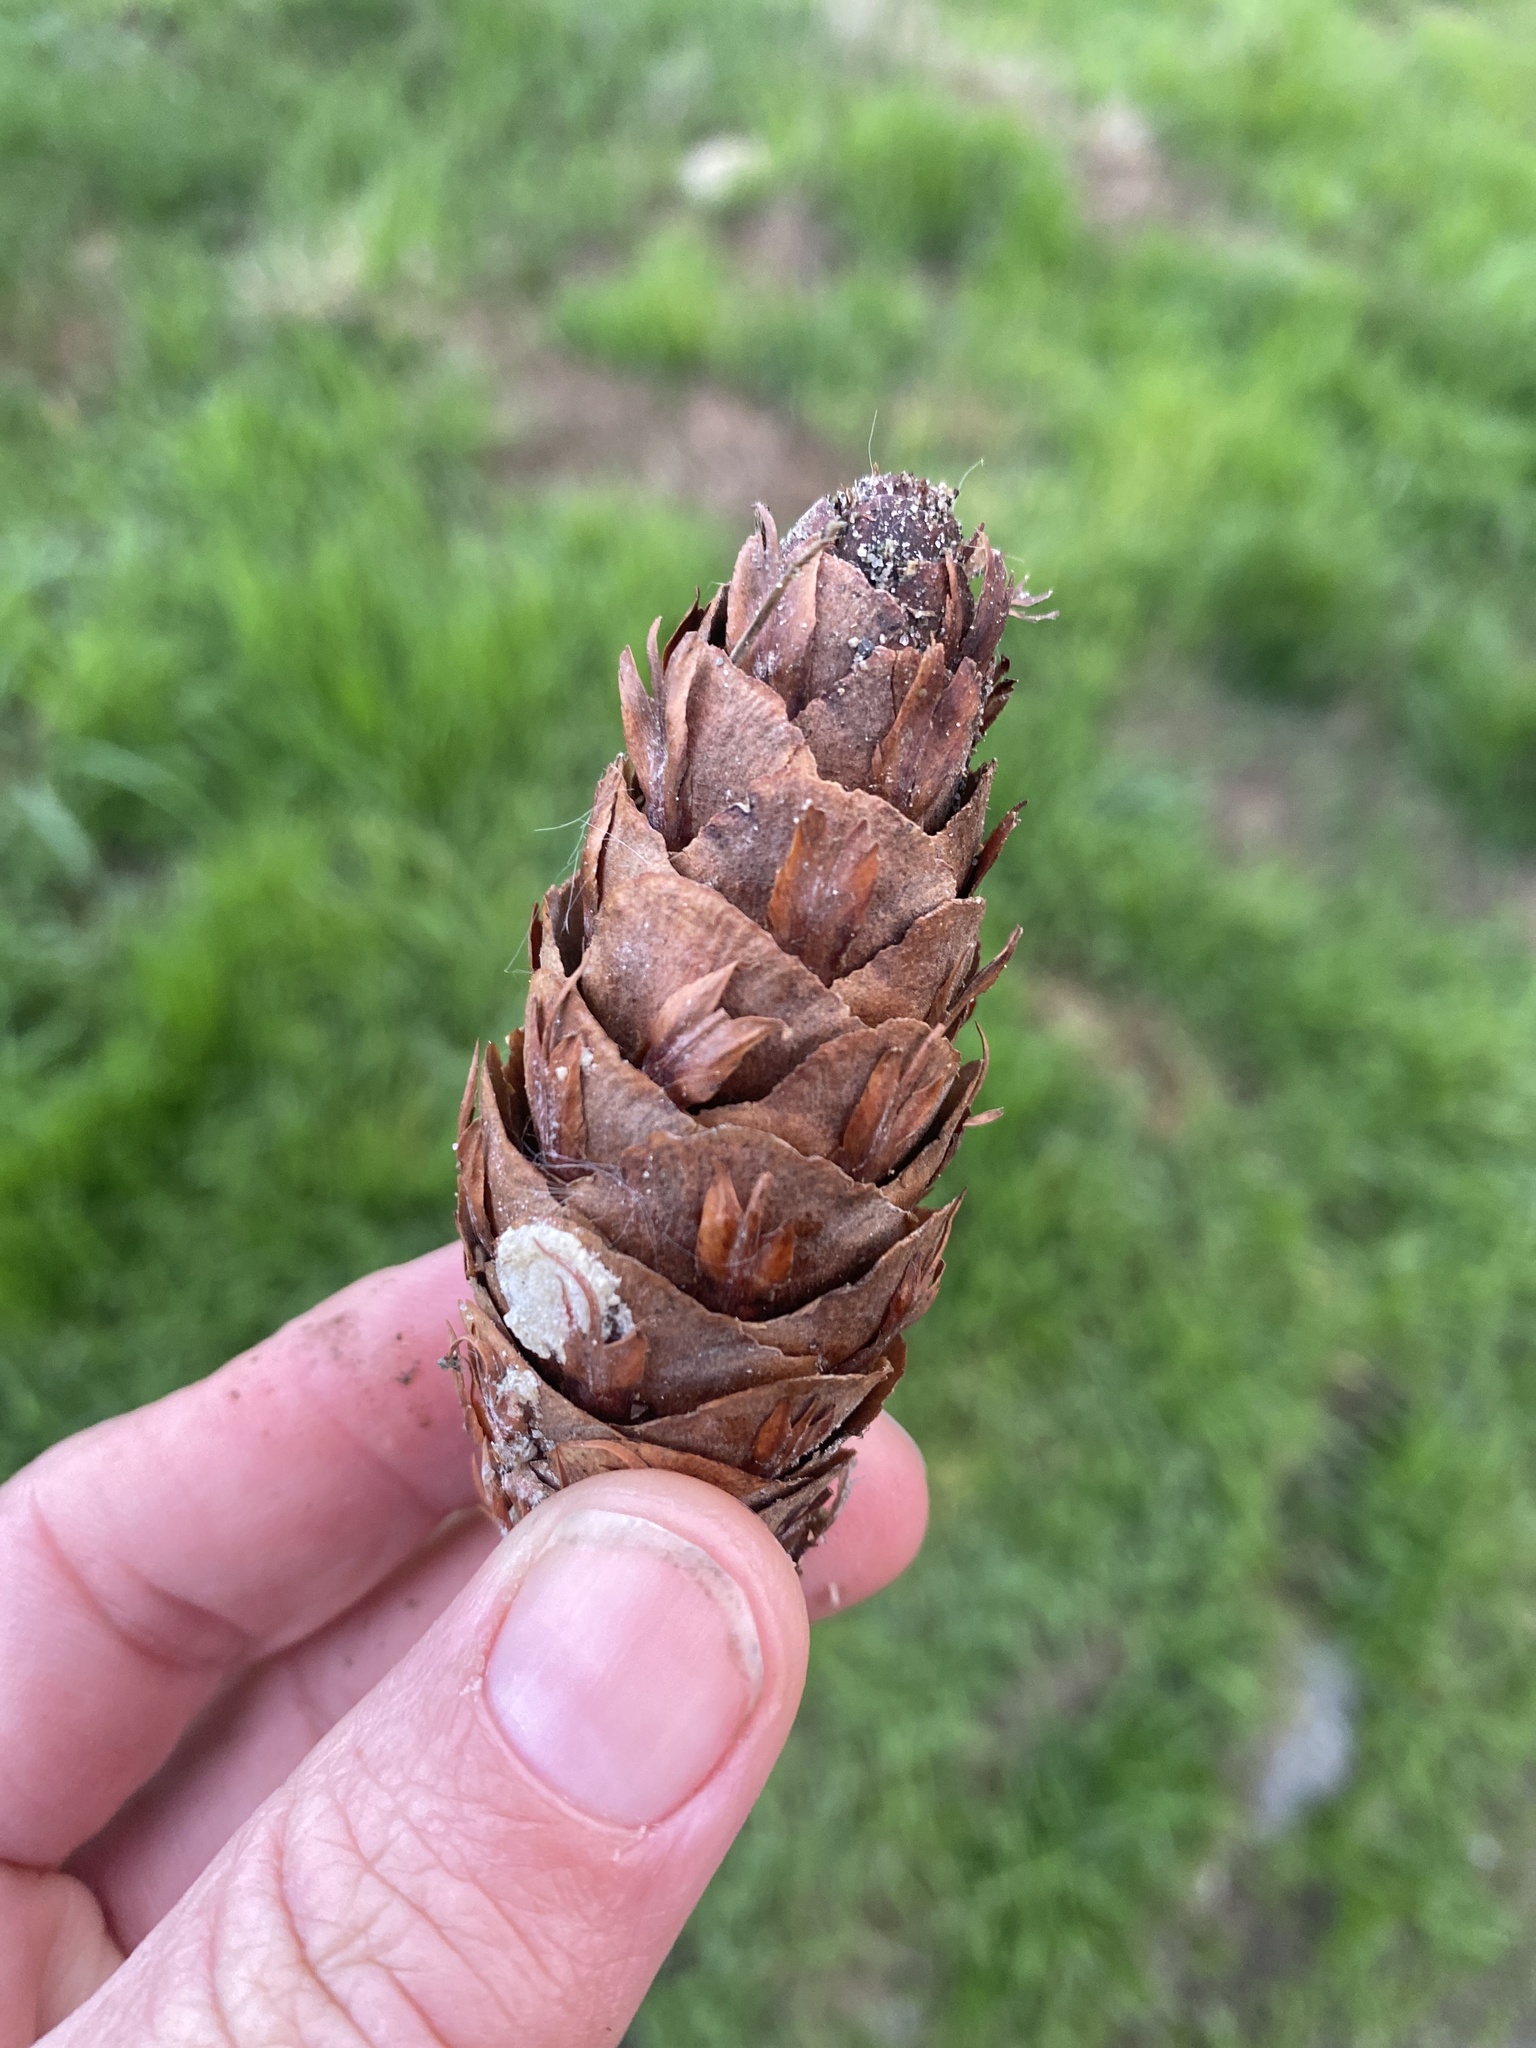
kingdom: Plantae
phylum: Tracheophyta
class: Pinopsida
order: Pinales
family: Pinaceae
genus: Pseudotsuga
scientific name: Pseudotsuga menziesii
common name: Douglas fir
